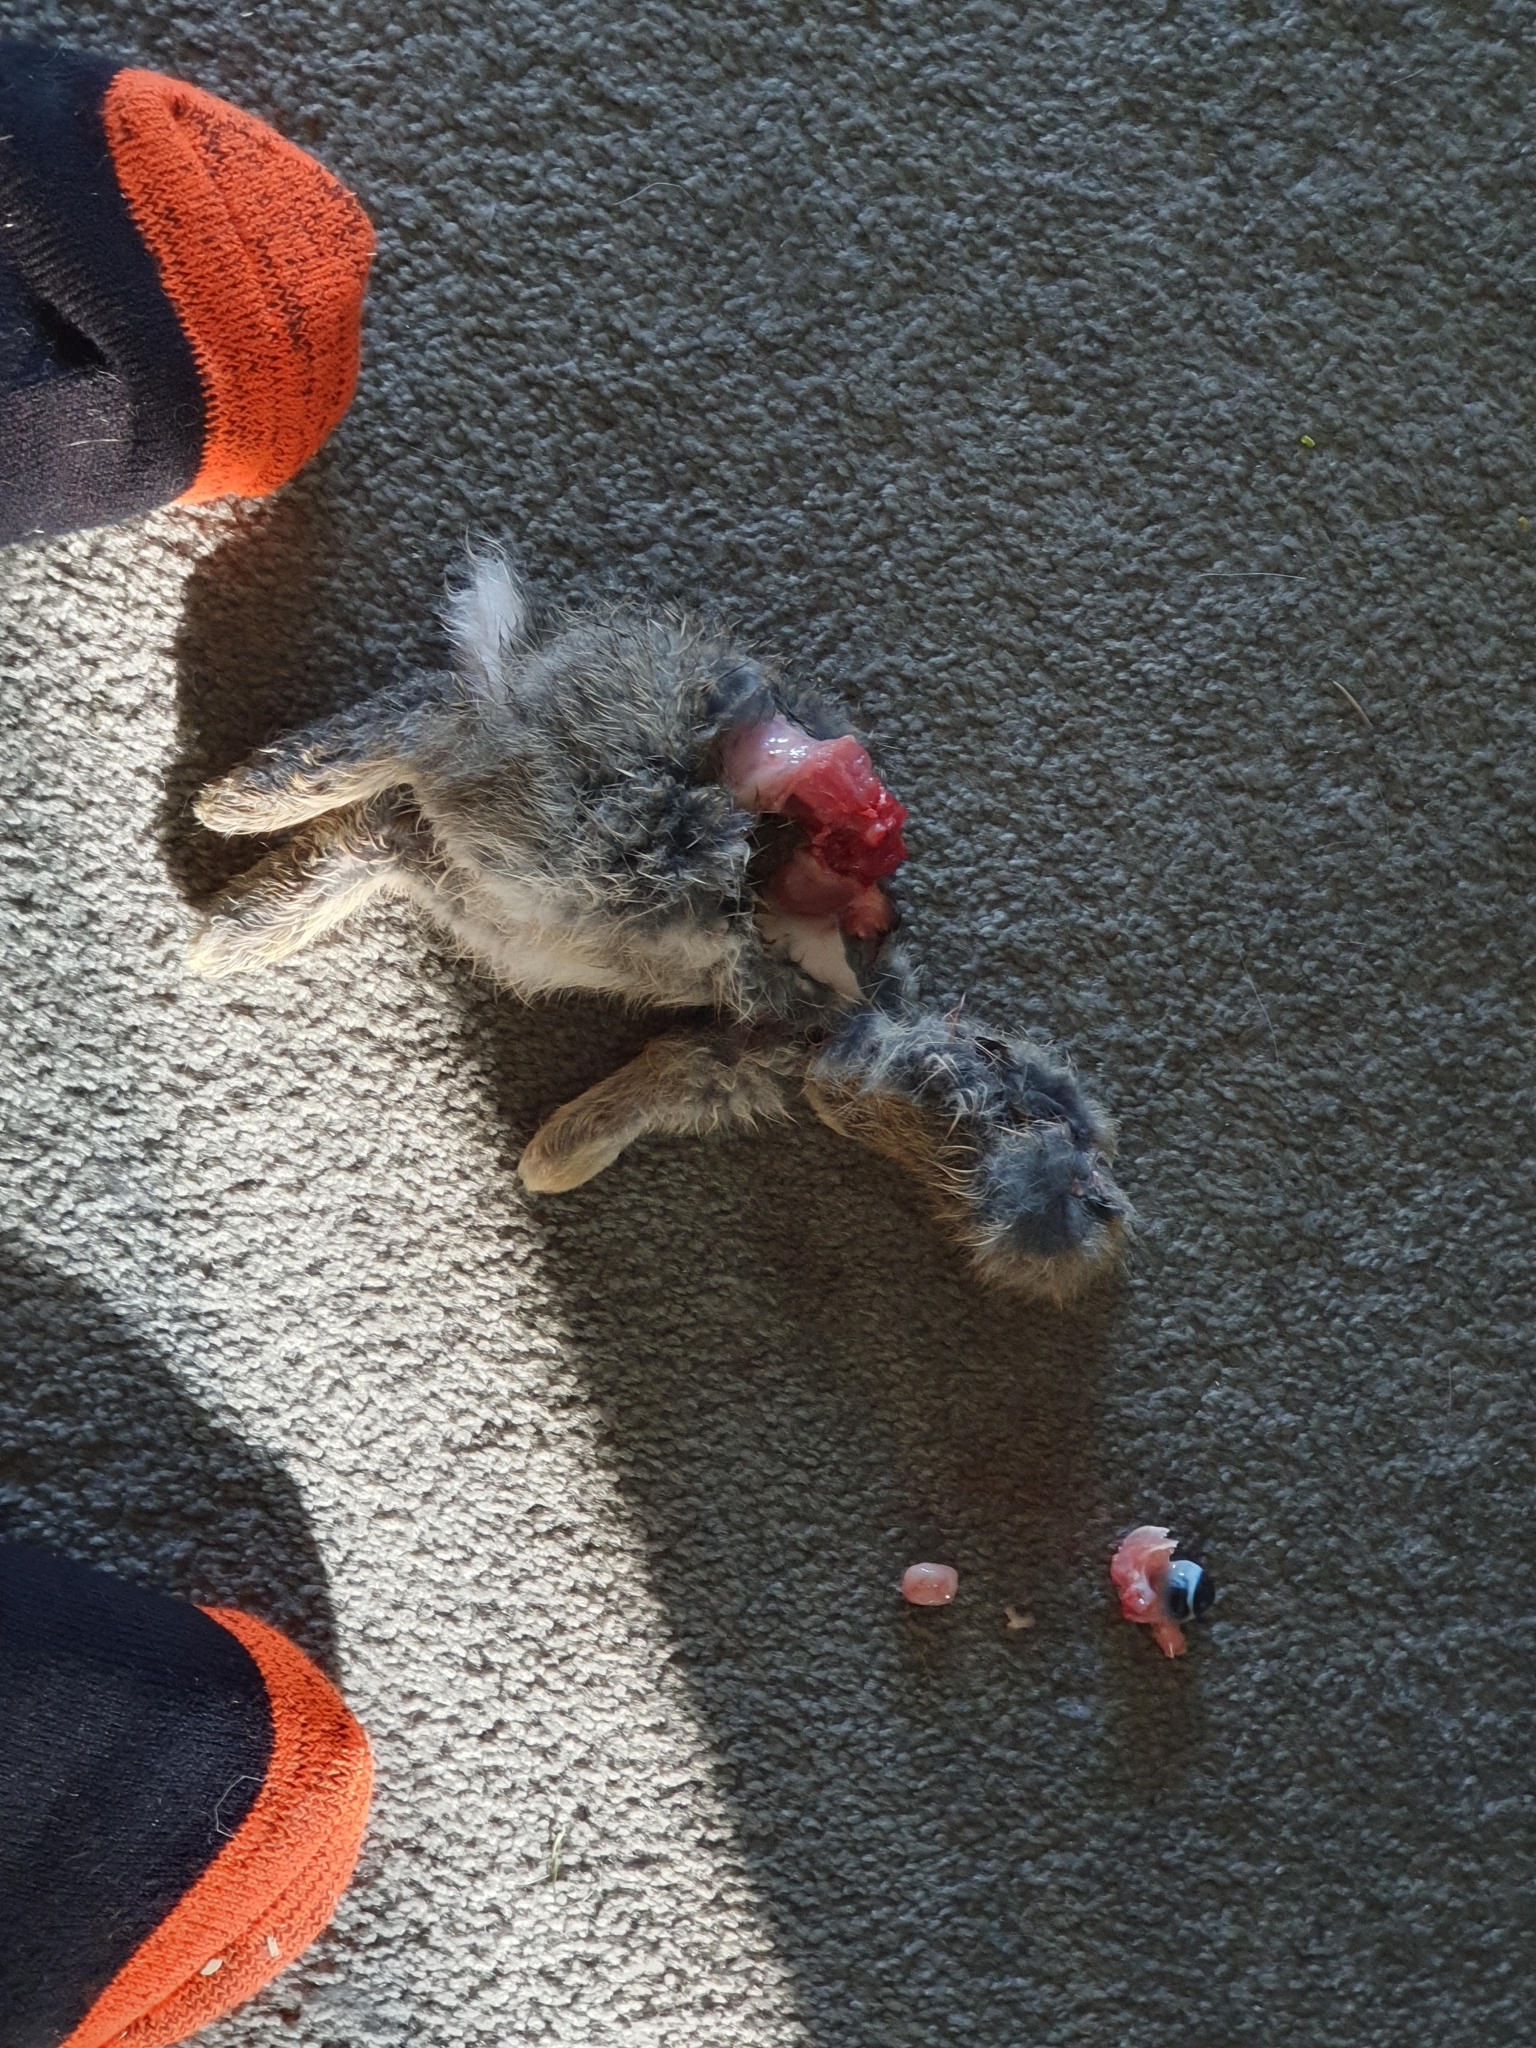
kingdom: Animalia
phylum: Chordata
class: Mammalia
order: Lagomorpha
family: Leporidae
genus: Oryctolagus
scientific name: Oryctolagus cuniculus
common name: European rabbit
